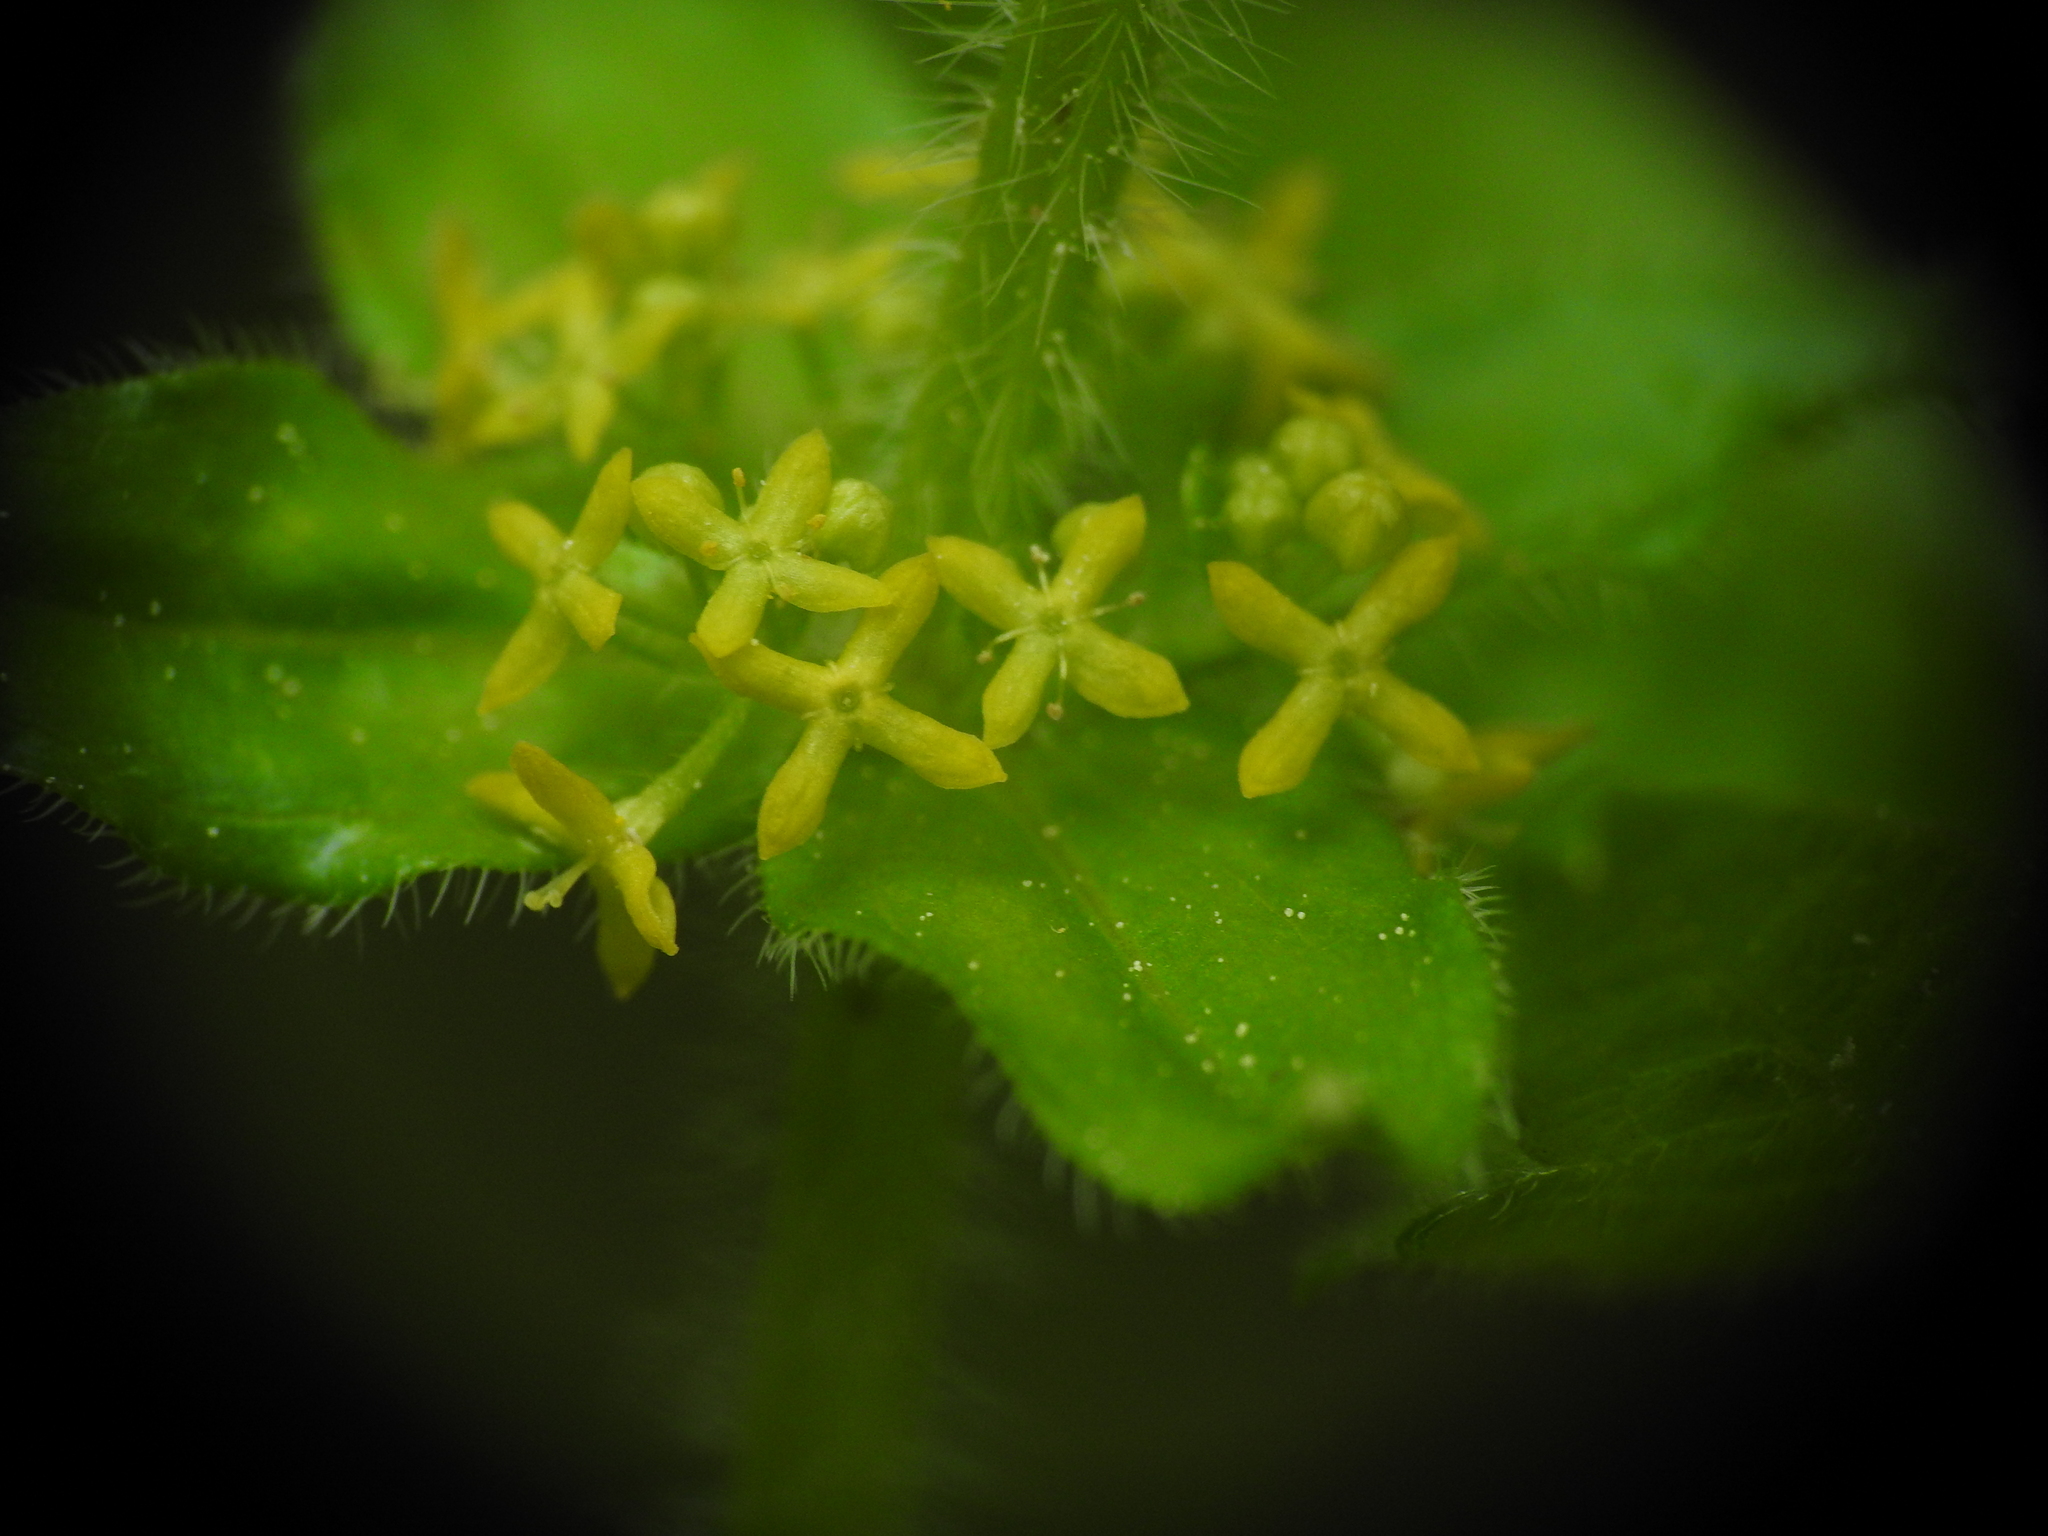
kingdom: Plantae
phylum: Tracheophyta
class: Magnoliopsida
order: Gentianales
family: Rubiaceae
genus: Cruciata
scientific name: Cruciata laevipes
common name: Crosswort
